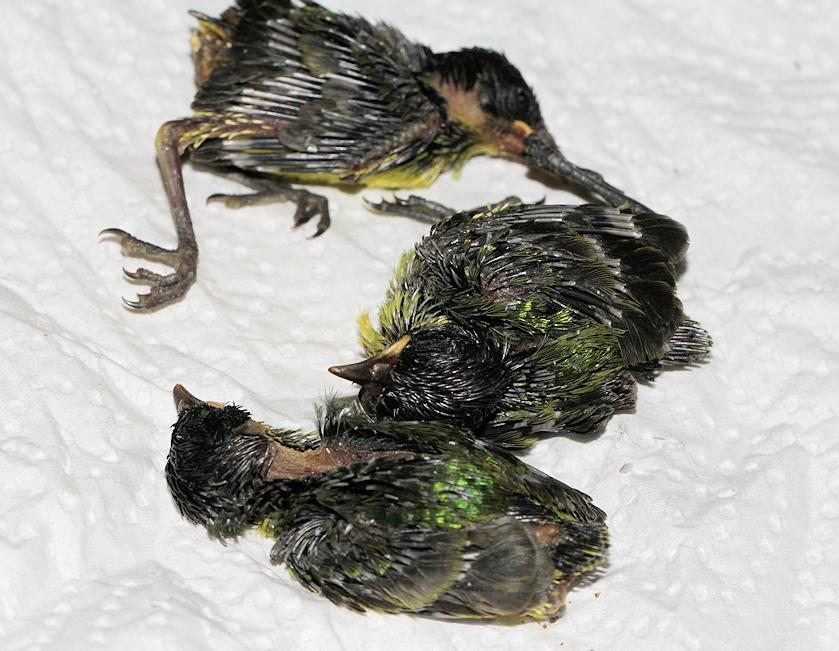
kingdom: Animalia
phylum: Chordata
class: Aves
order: Passeriformes
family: Nectariniidae
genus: Hedydipna
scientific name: Hedydipna collaris
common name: Collared sunbird
